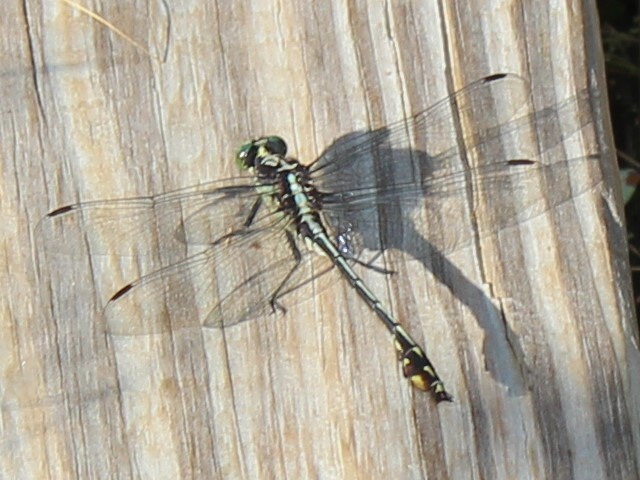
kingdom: Animalia
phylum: Arthropoda
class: Insecta
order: Odonata
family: Gomphidae
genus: Dromogomphus
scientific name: Dromogomphus spinosus
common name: Black-shouldered spinyleg
